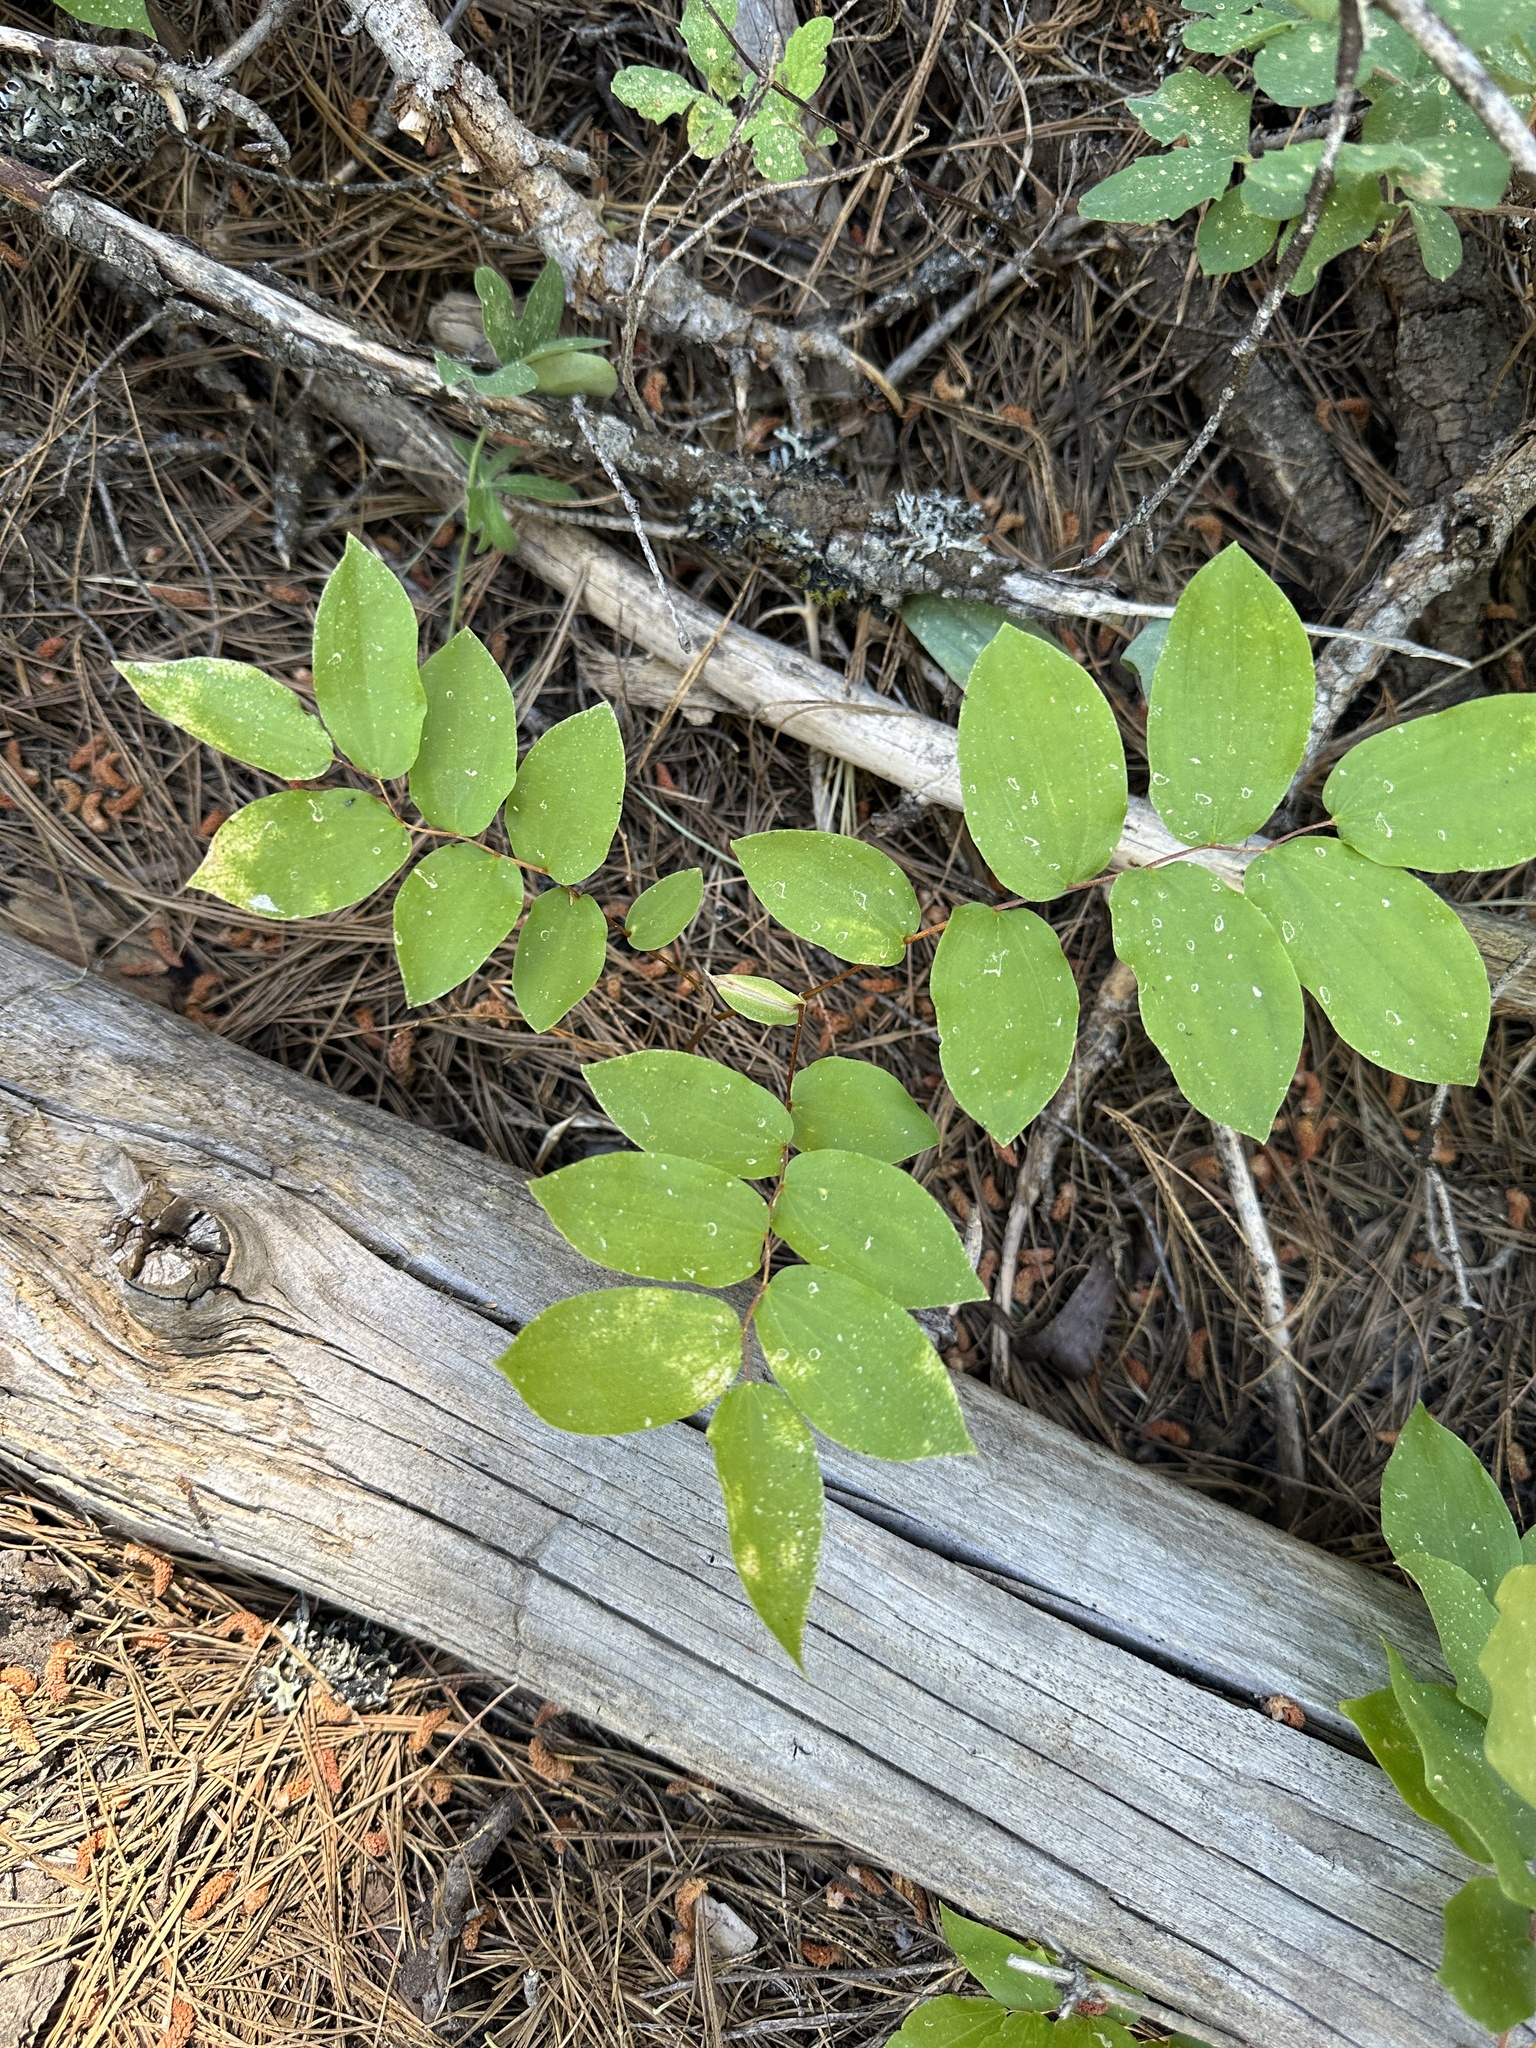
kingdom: Plantae
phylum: Tracheophyta
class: Liliopsida
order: Liliales
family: Liliaceae
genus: Prosartes
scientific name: Prosartes hookeri
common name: Fairy-bells
